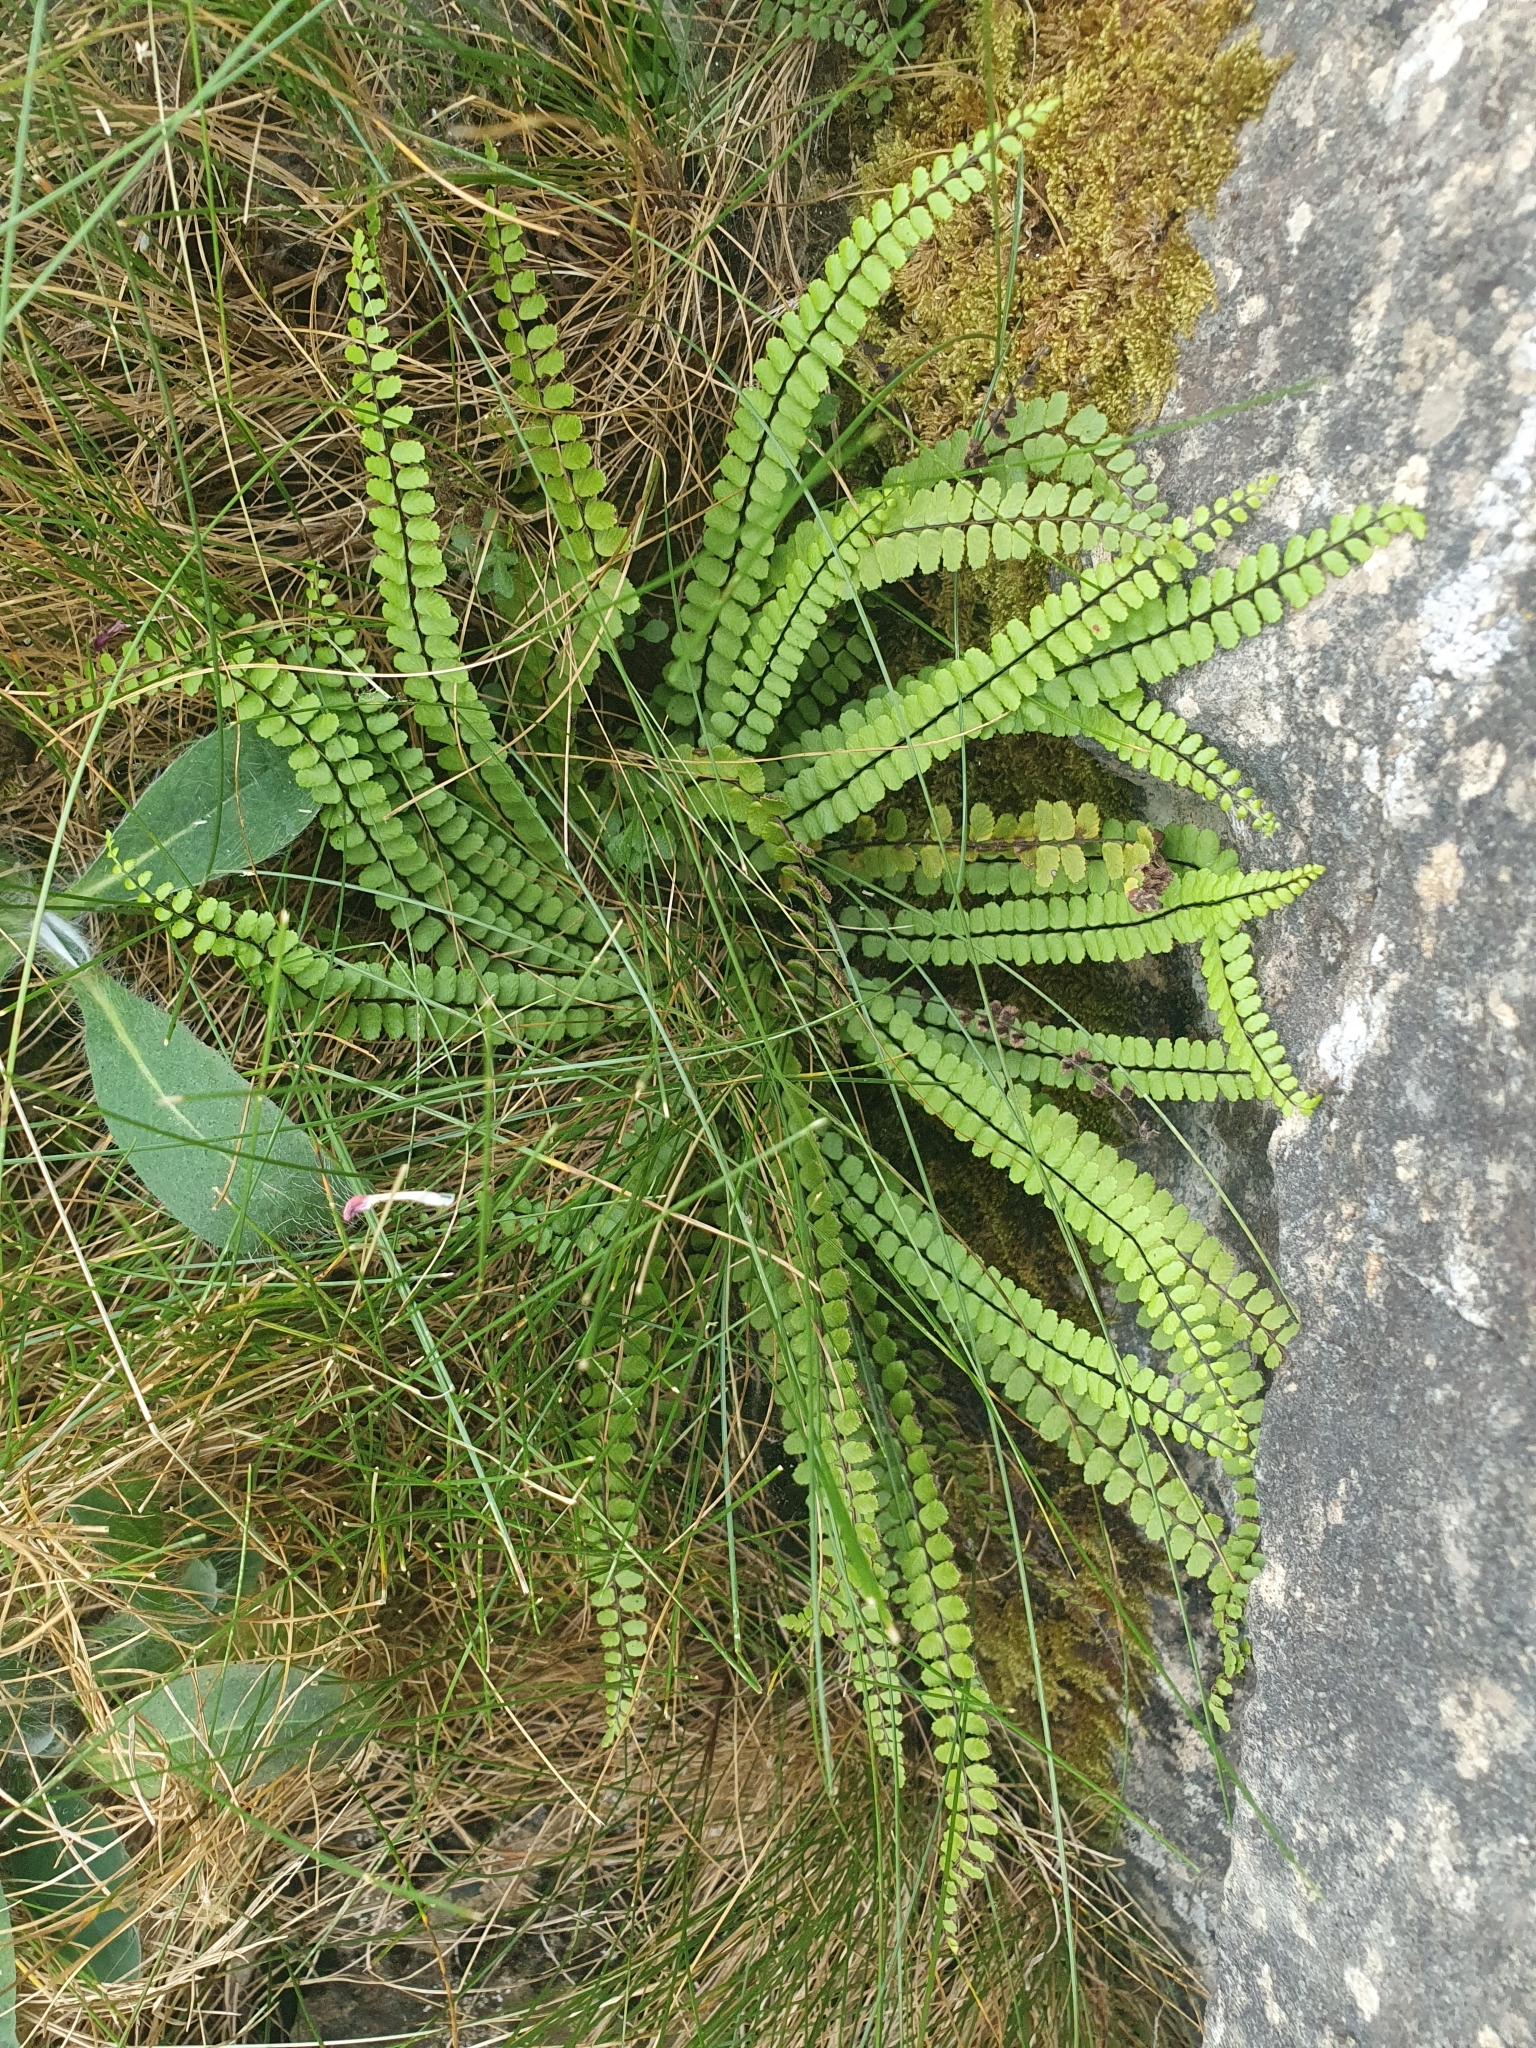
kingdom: Plantae
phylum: Tracheophyta
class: Polypodiopsida
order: Polypodiales
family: Aspleniaceae
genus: Asplenium
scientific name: Asplenium trichomanes
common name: Maidenhair spleenwort
